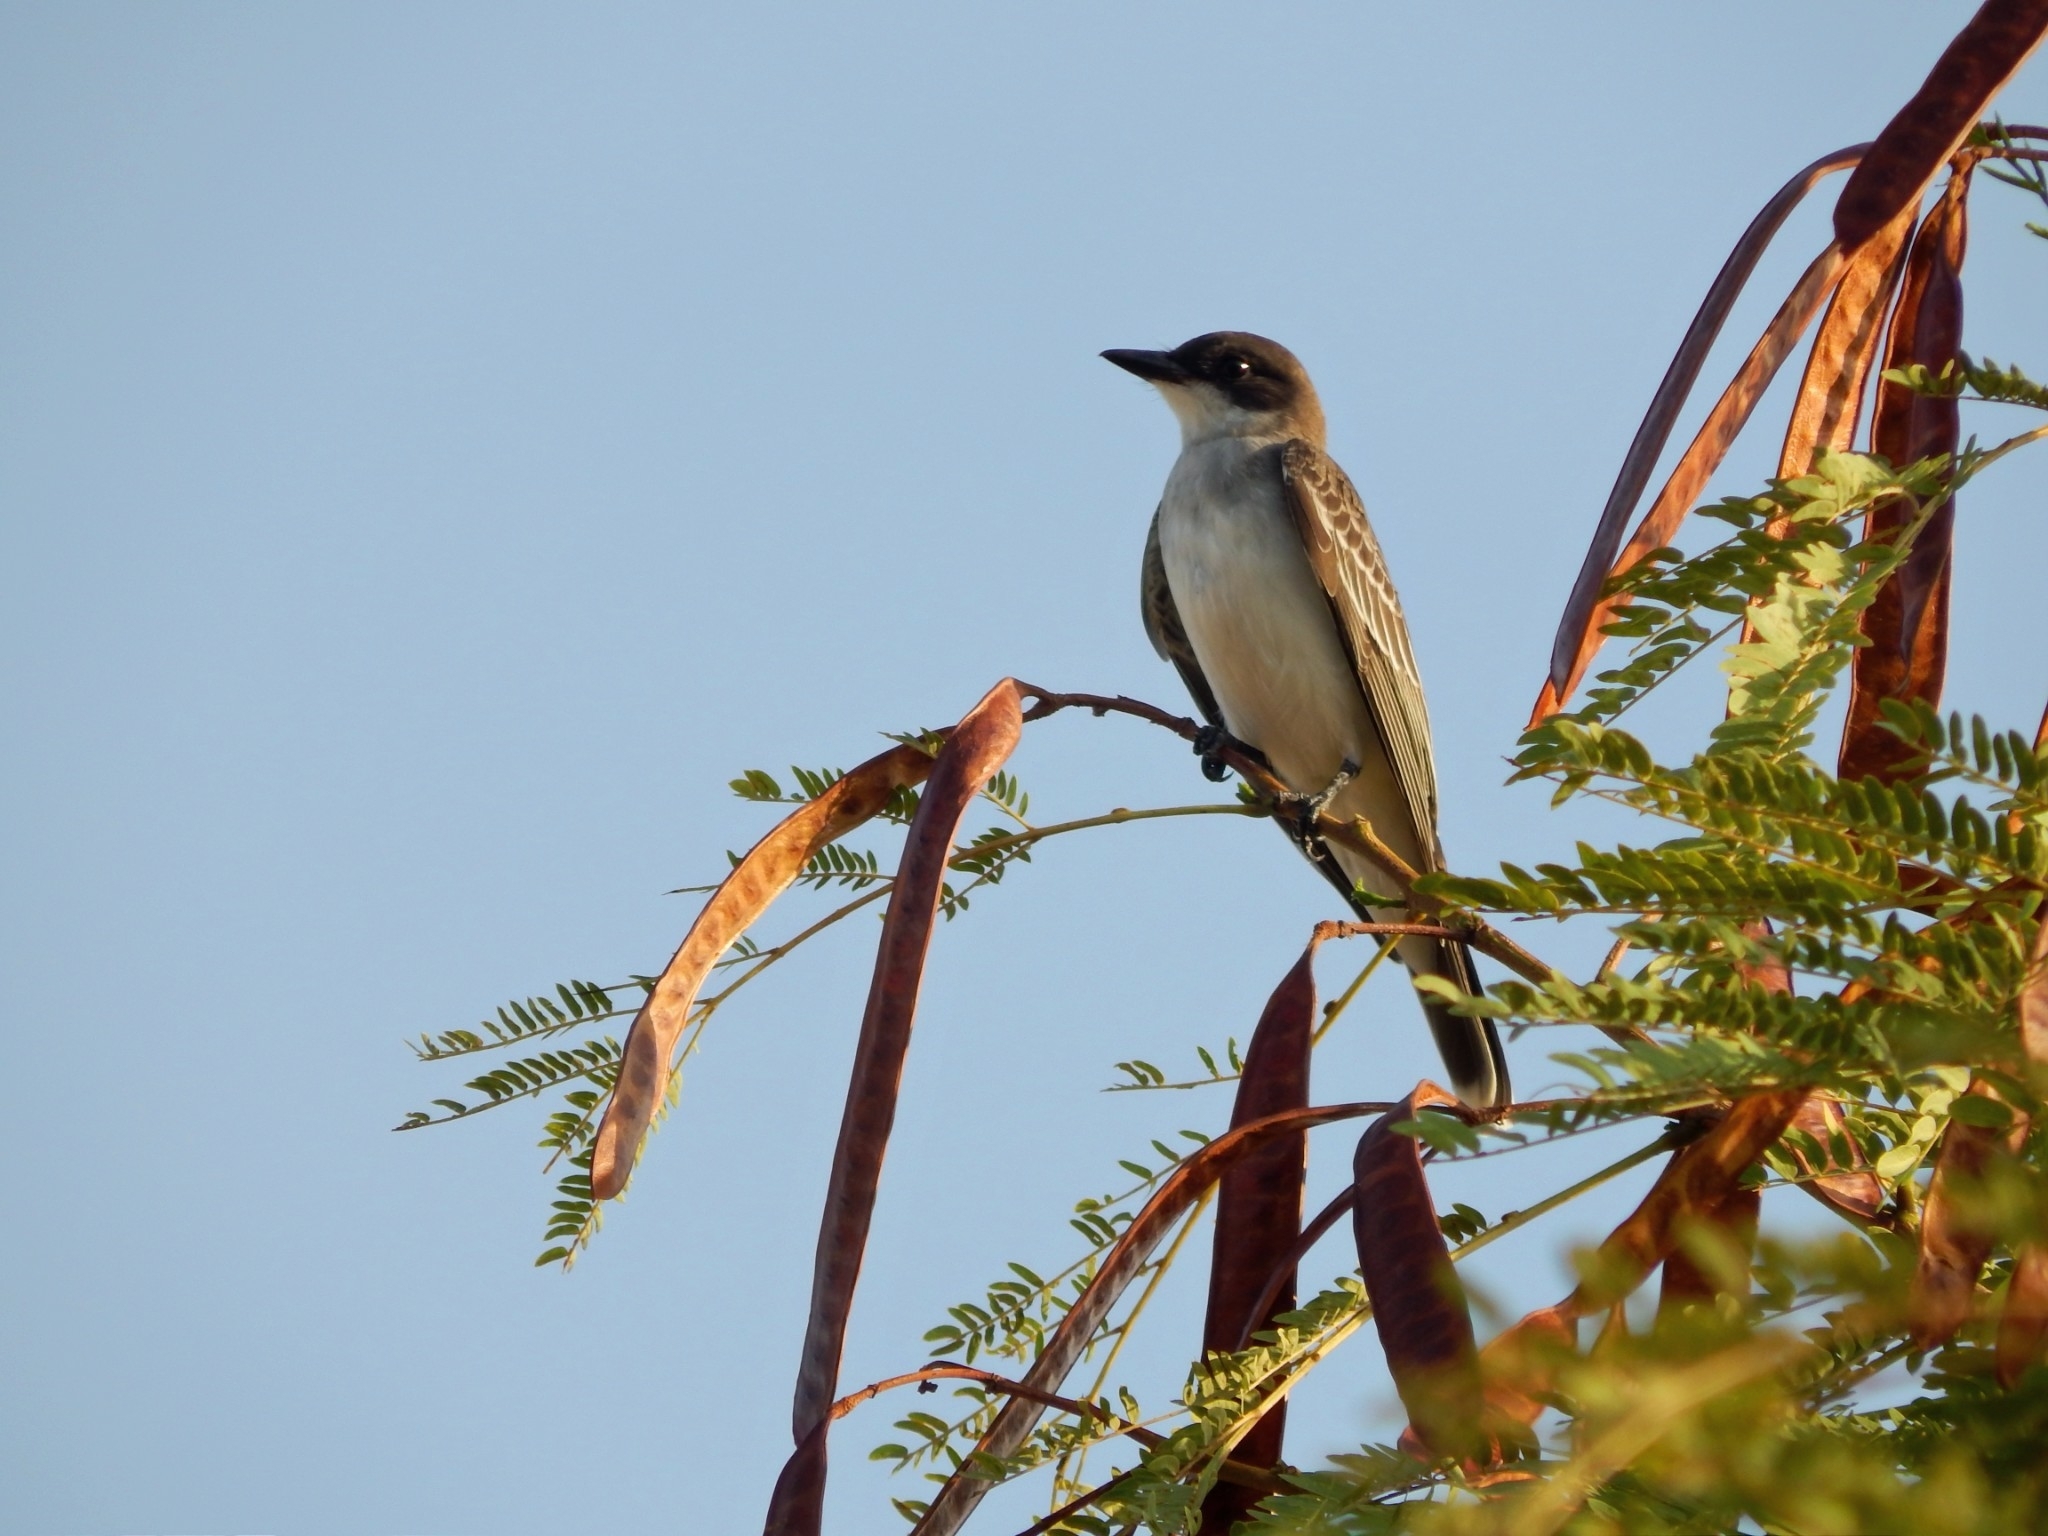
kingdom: Animalia
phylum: Chordata
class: Aves
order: Passeriformes
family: Tyrannidae
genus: Tyrannus
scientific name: Tyrannus tyrannus
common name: Eastern kingbird
